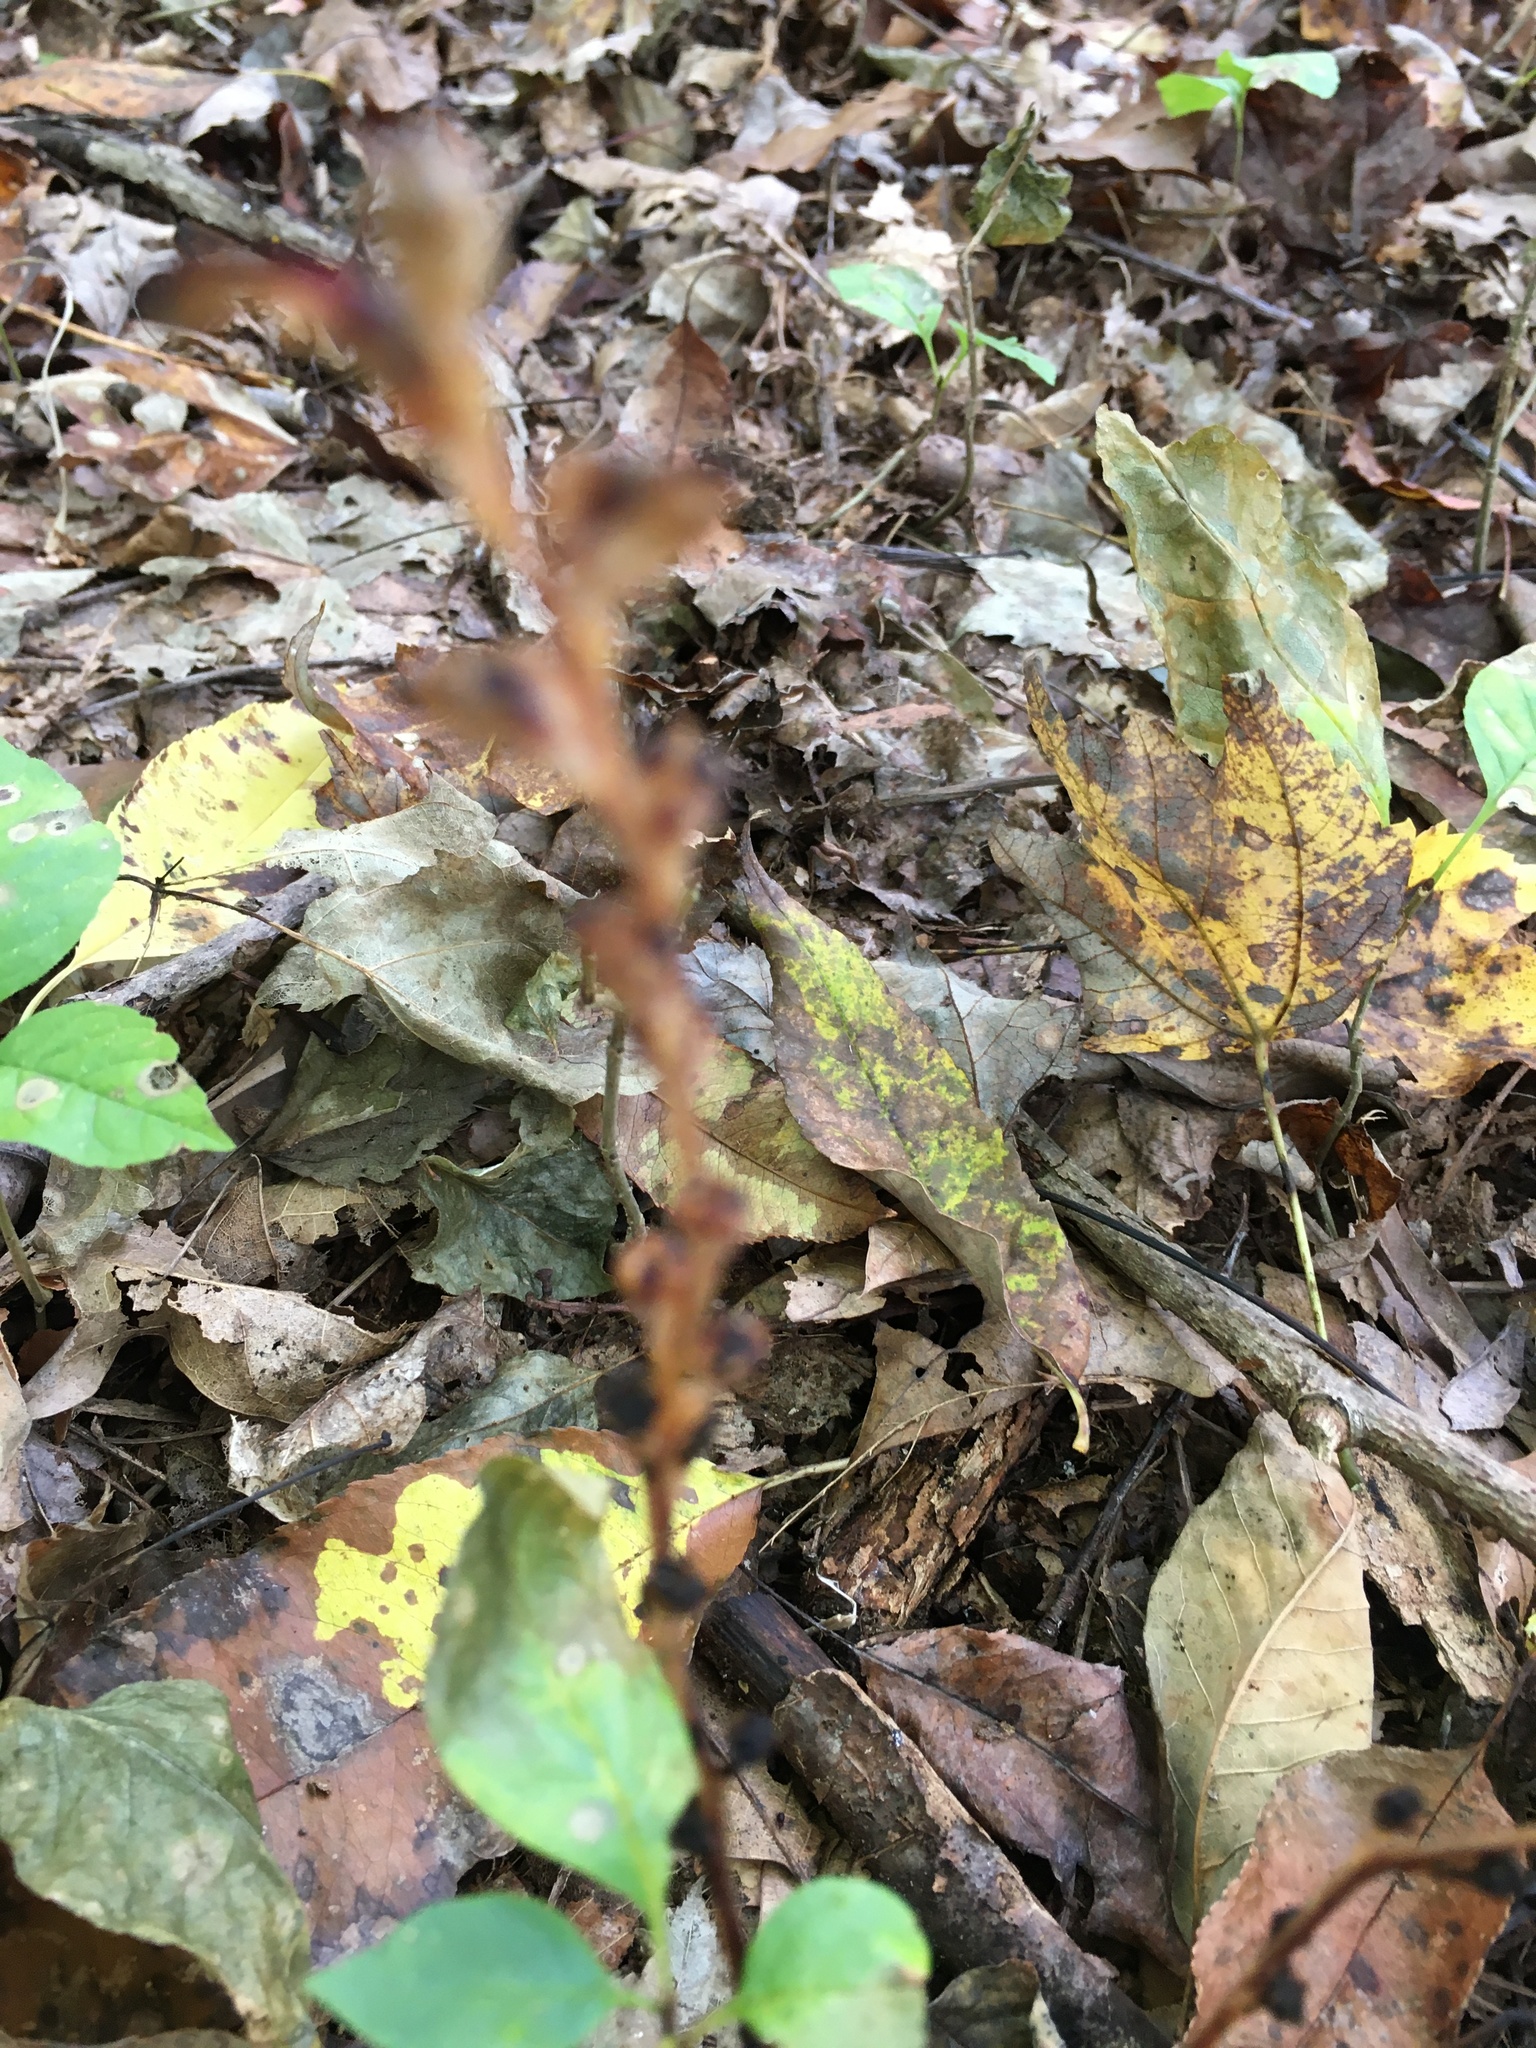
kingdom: Plantae
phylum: Tracheophyta
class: Magnoliopsida
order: Lamiales
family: Orobanchaceae
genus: Epifagus
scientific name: Epifagus virginiana
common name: Beechdrops
